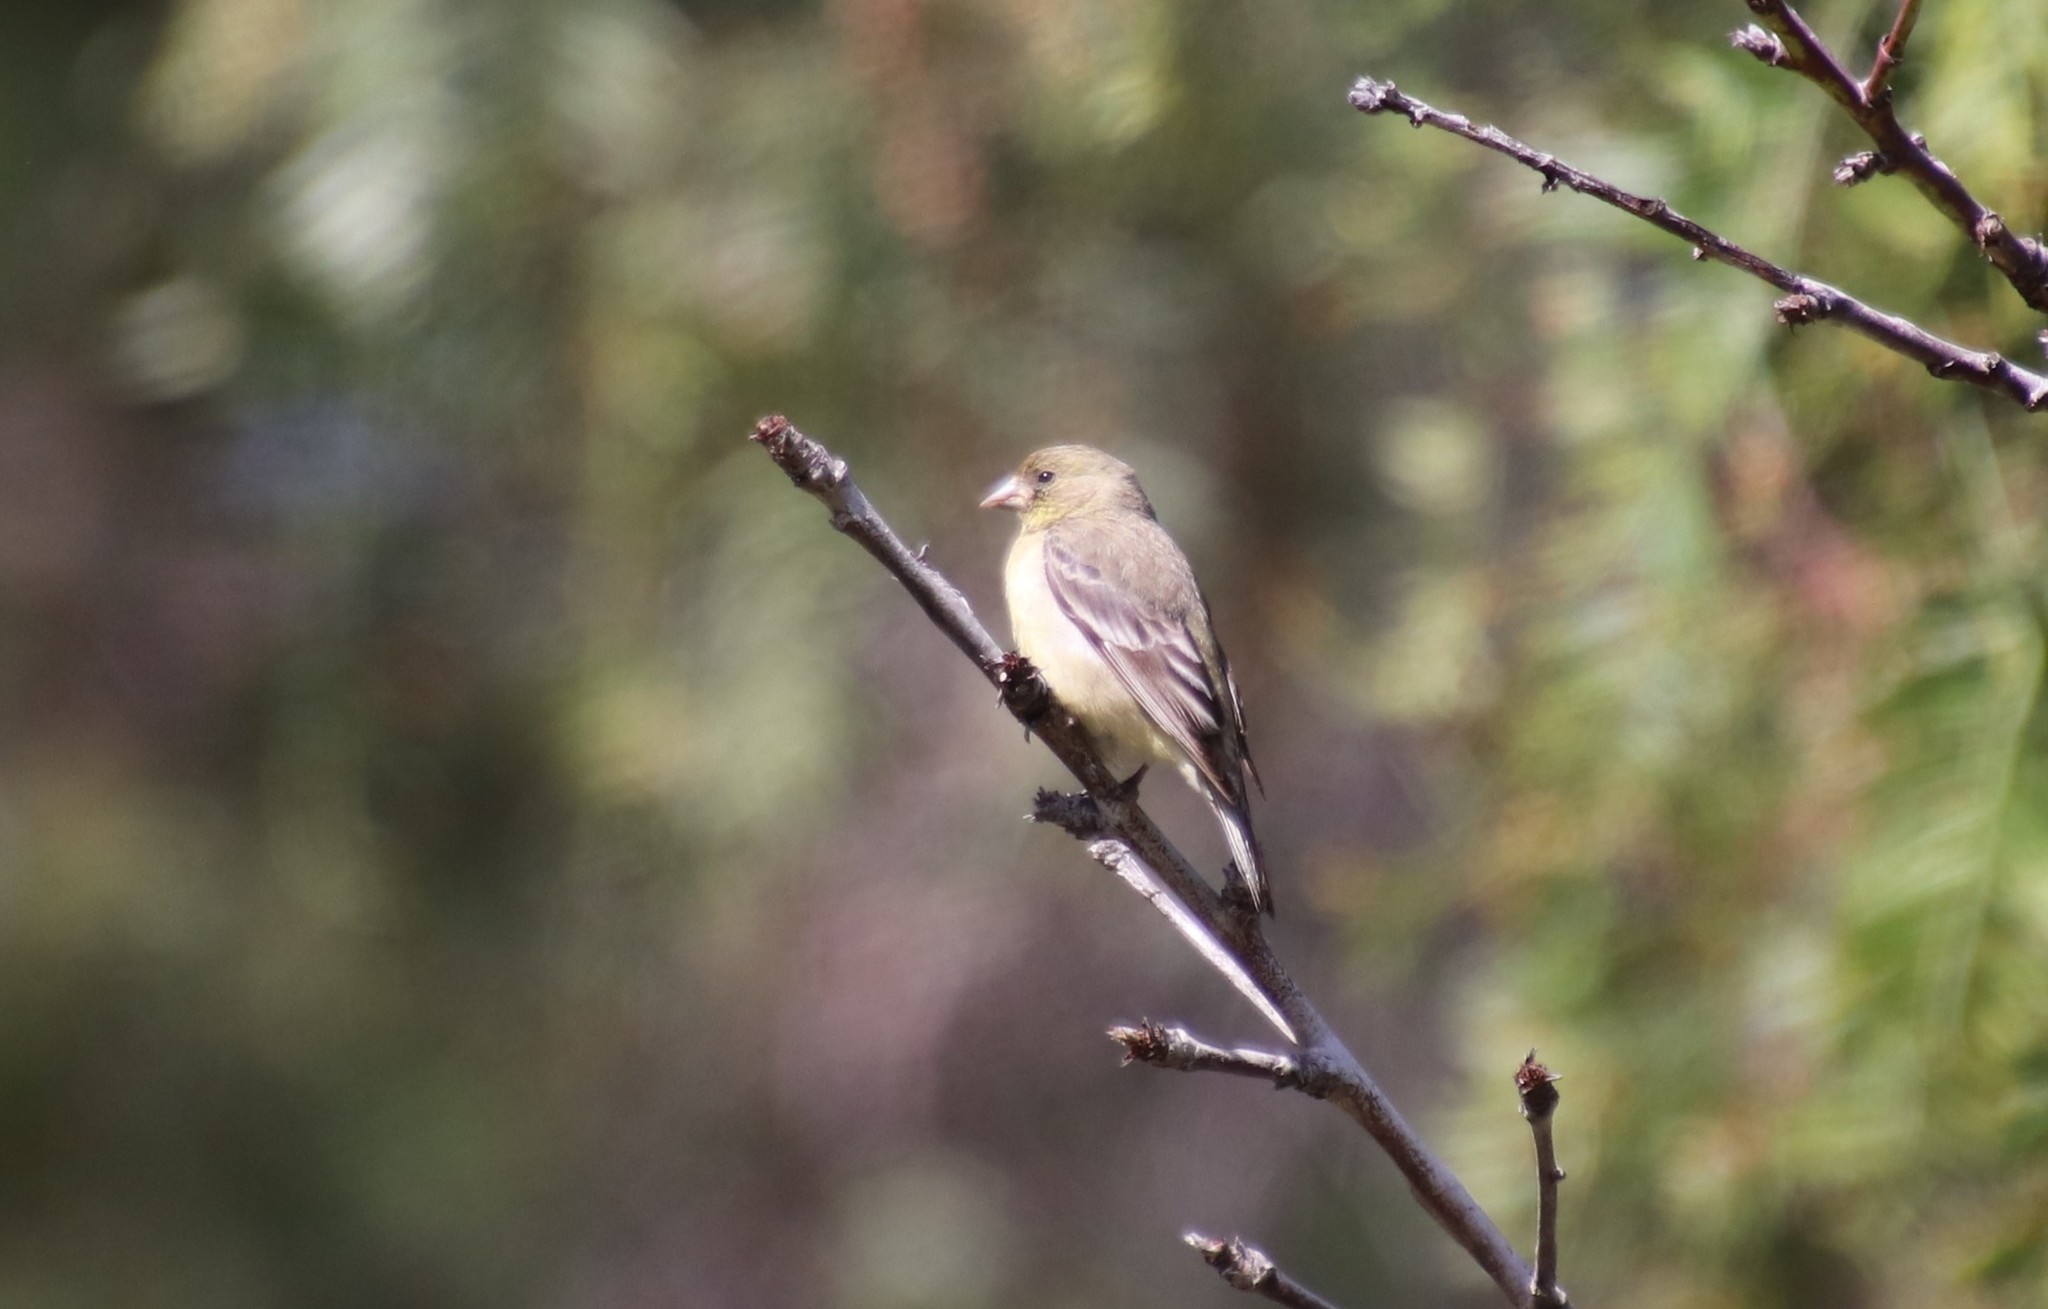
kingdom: Animalia
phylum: Chordata
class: Aves
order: Passeriformes
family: Fringillidae
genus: Spinus
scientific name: Spinus psaltria
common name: Lesser goldfinch
